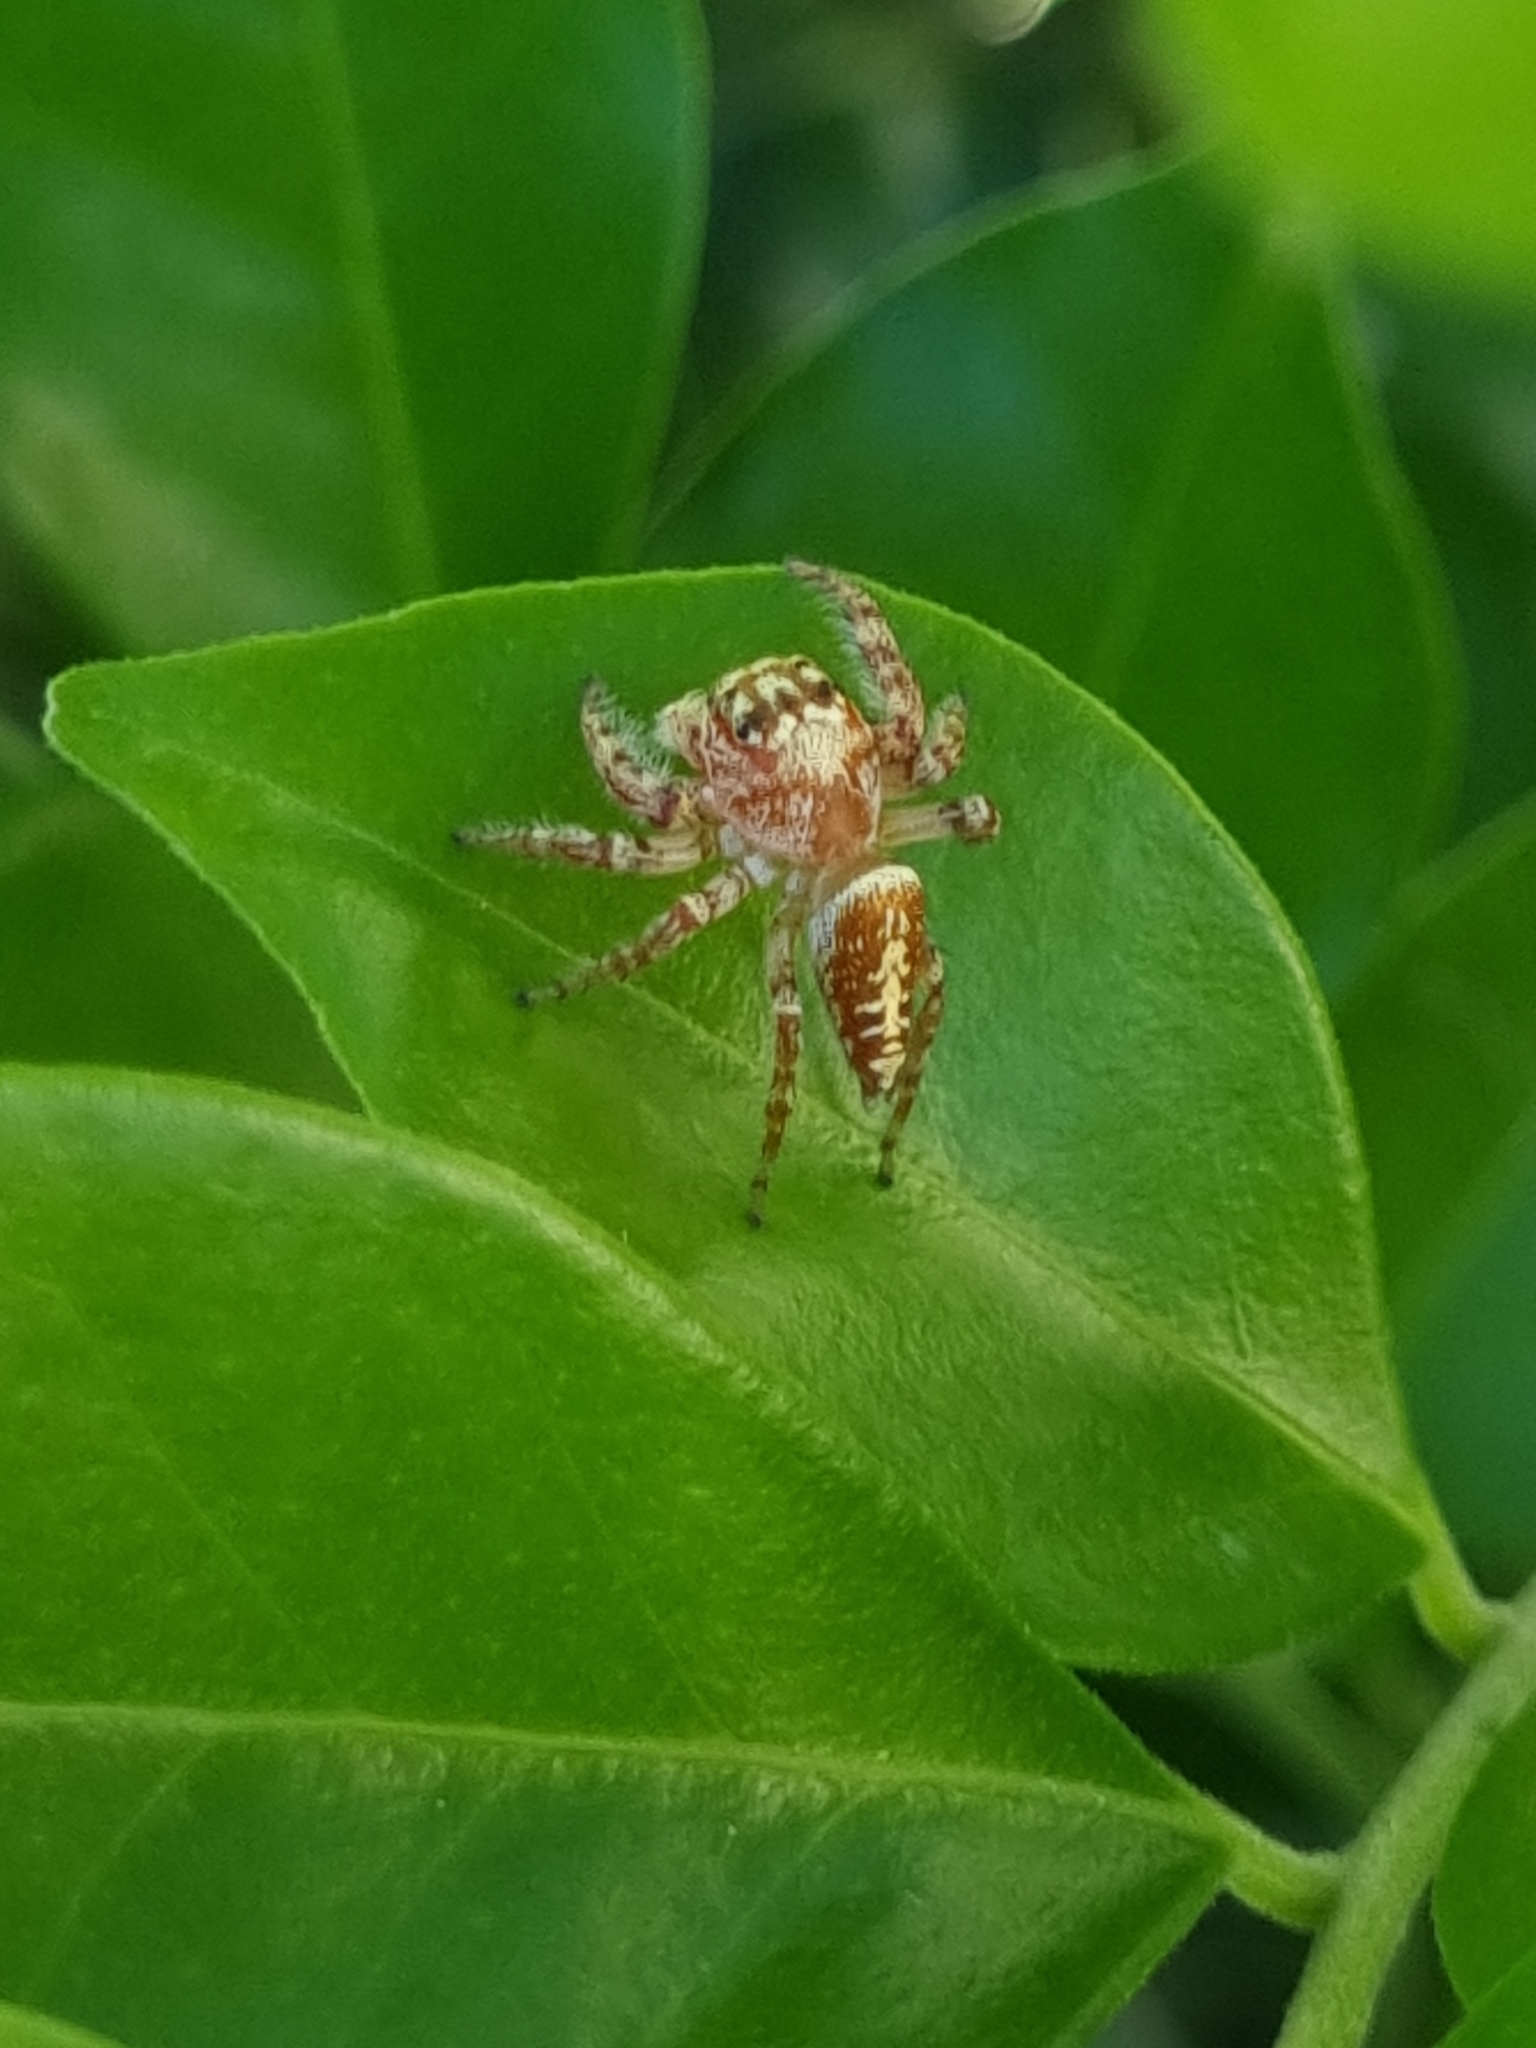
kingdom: Animalia
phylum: Arthropoda
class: Arachnida
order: Araneae
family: Salticidae
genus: Opisthoncus
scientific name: Opisthoncus quadratarius
